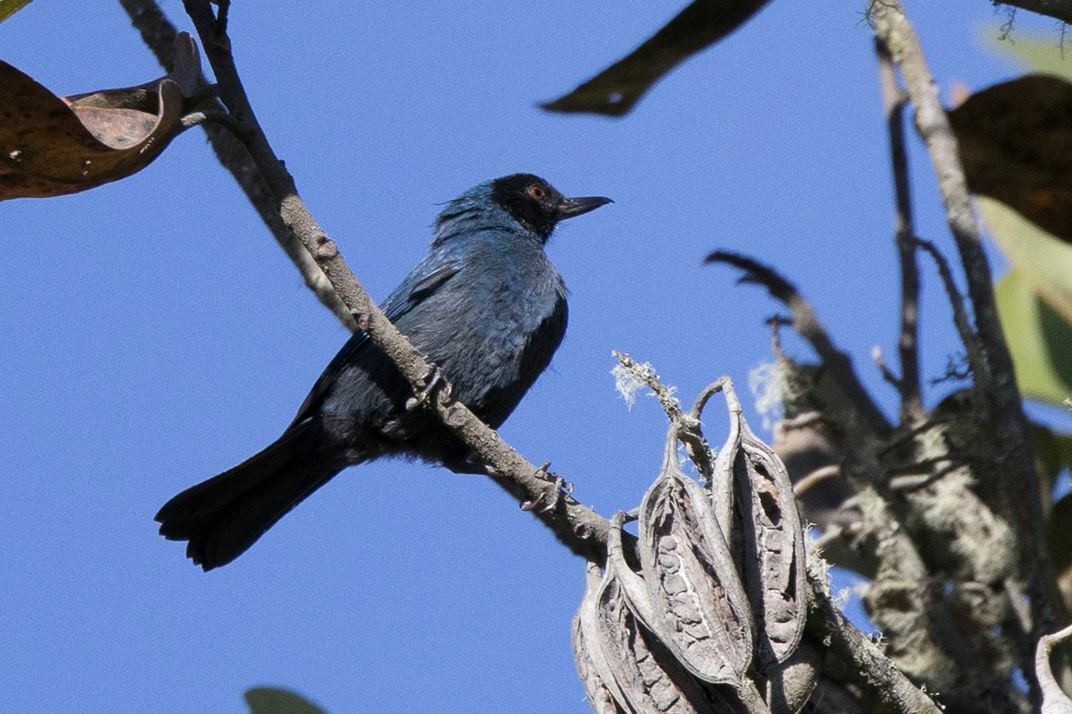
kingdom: Animalia
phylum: Chordata
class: Aves
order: Passeriformes
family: Thraupidae
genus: Diglossa
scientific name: Diglossa cyanea
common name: Masked flowerpiercer
